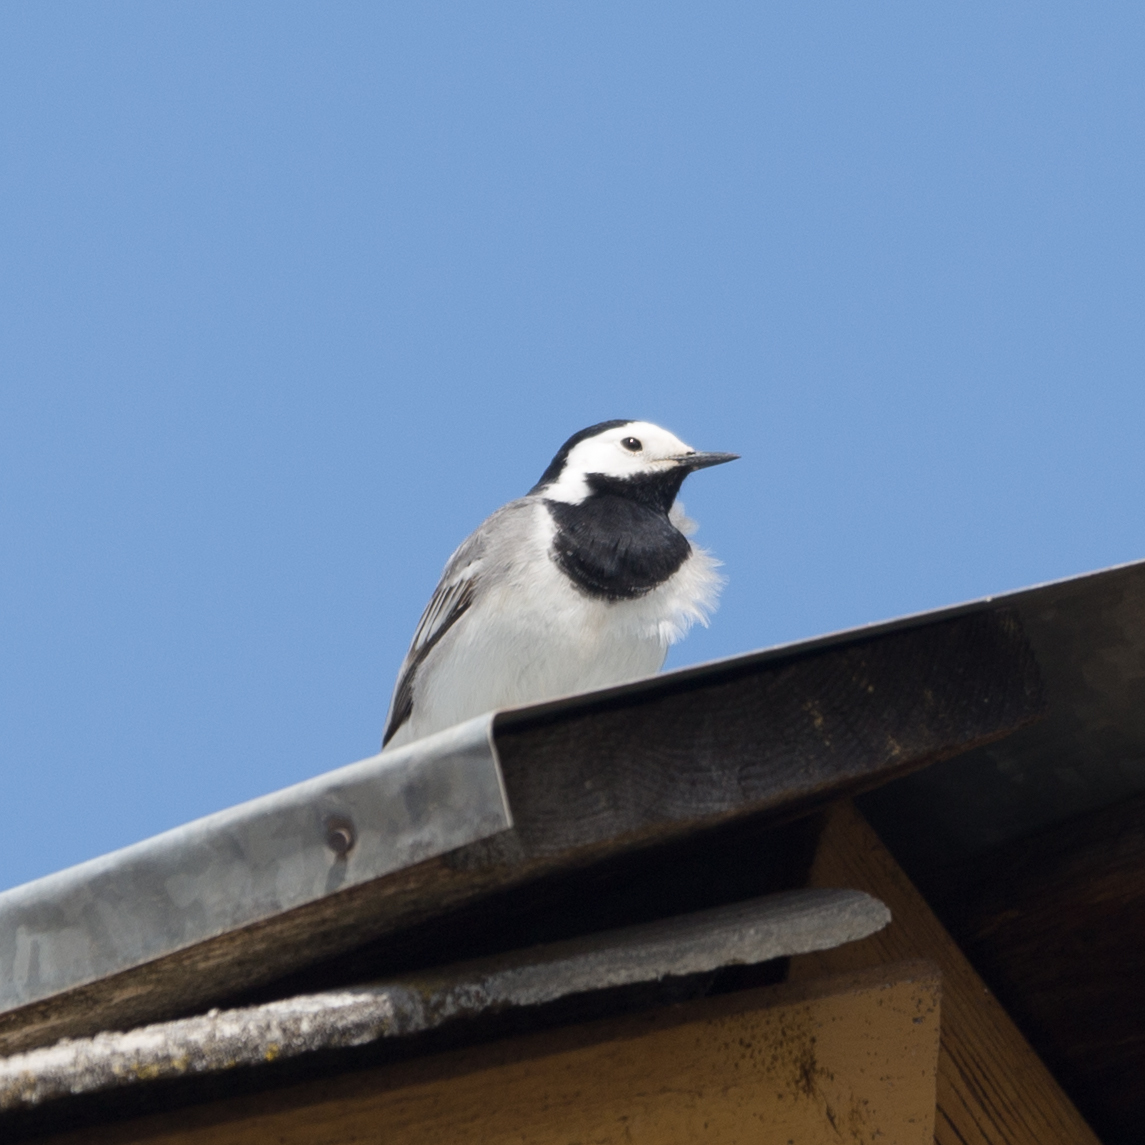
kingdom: Animalia
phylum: Chordata
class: Aves
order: Passeriformes
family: Motacillidae
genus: Motacilla
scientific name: Motacilla alba
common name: White wagtail
